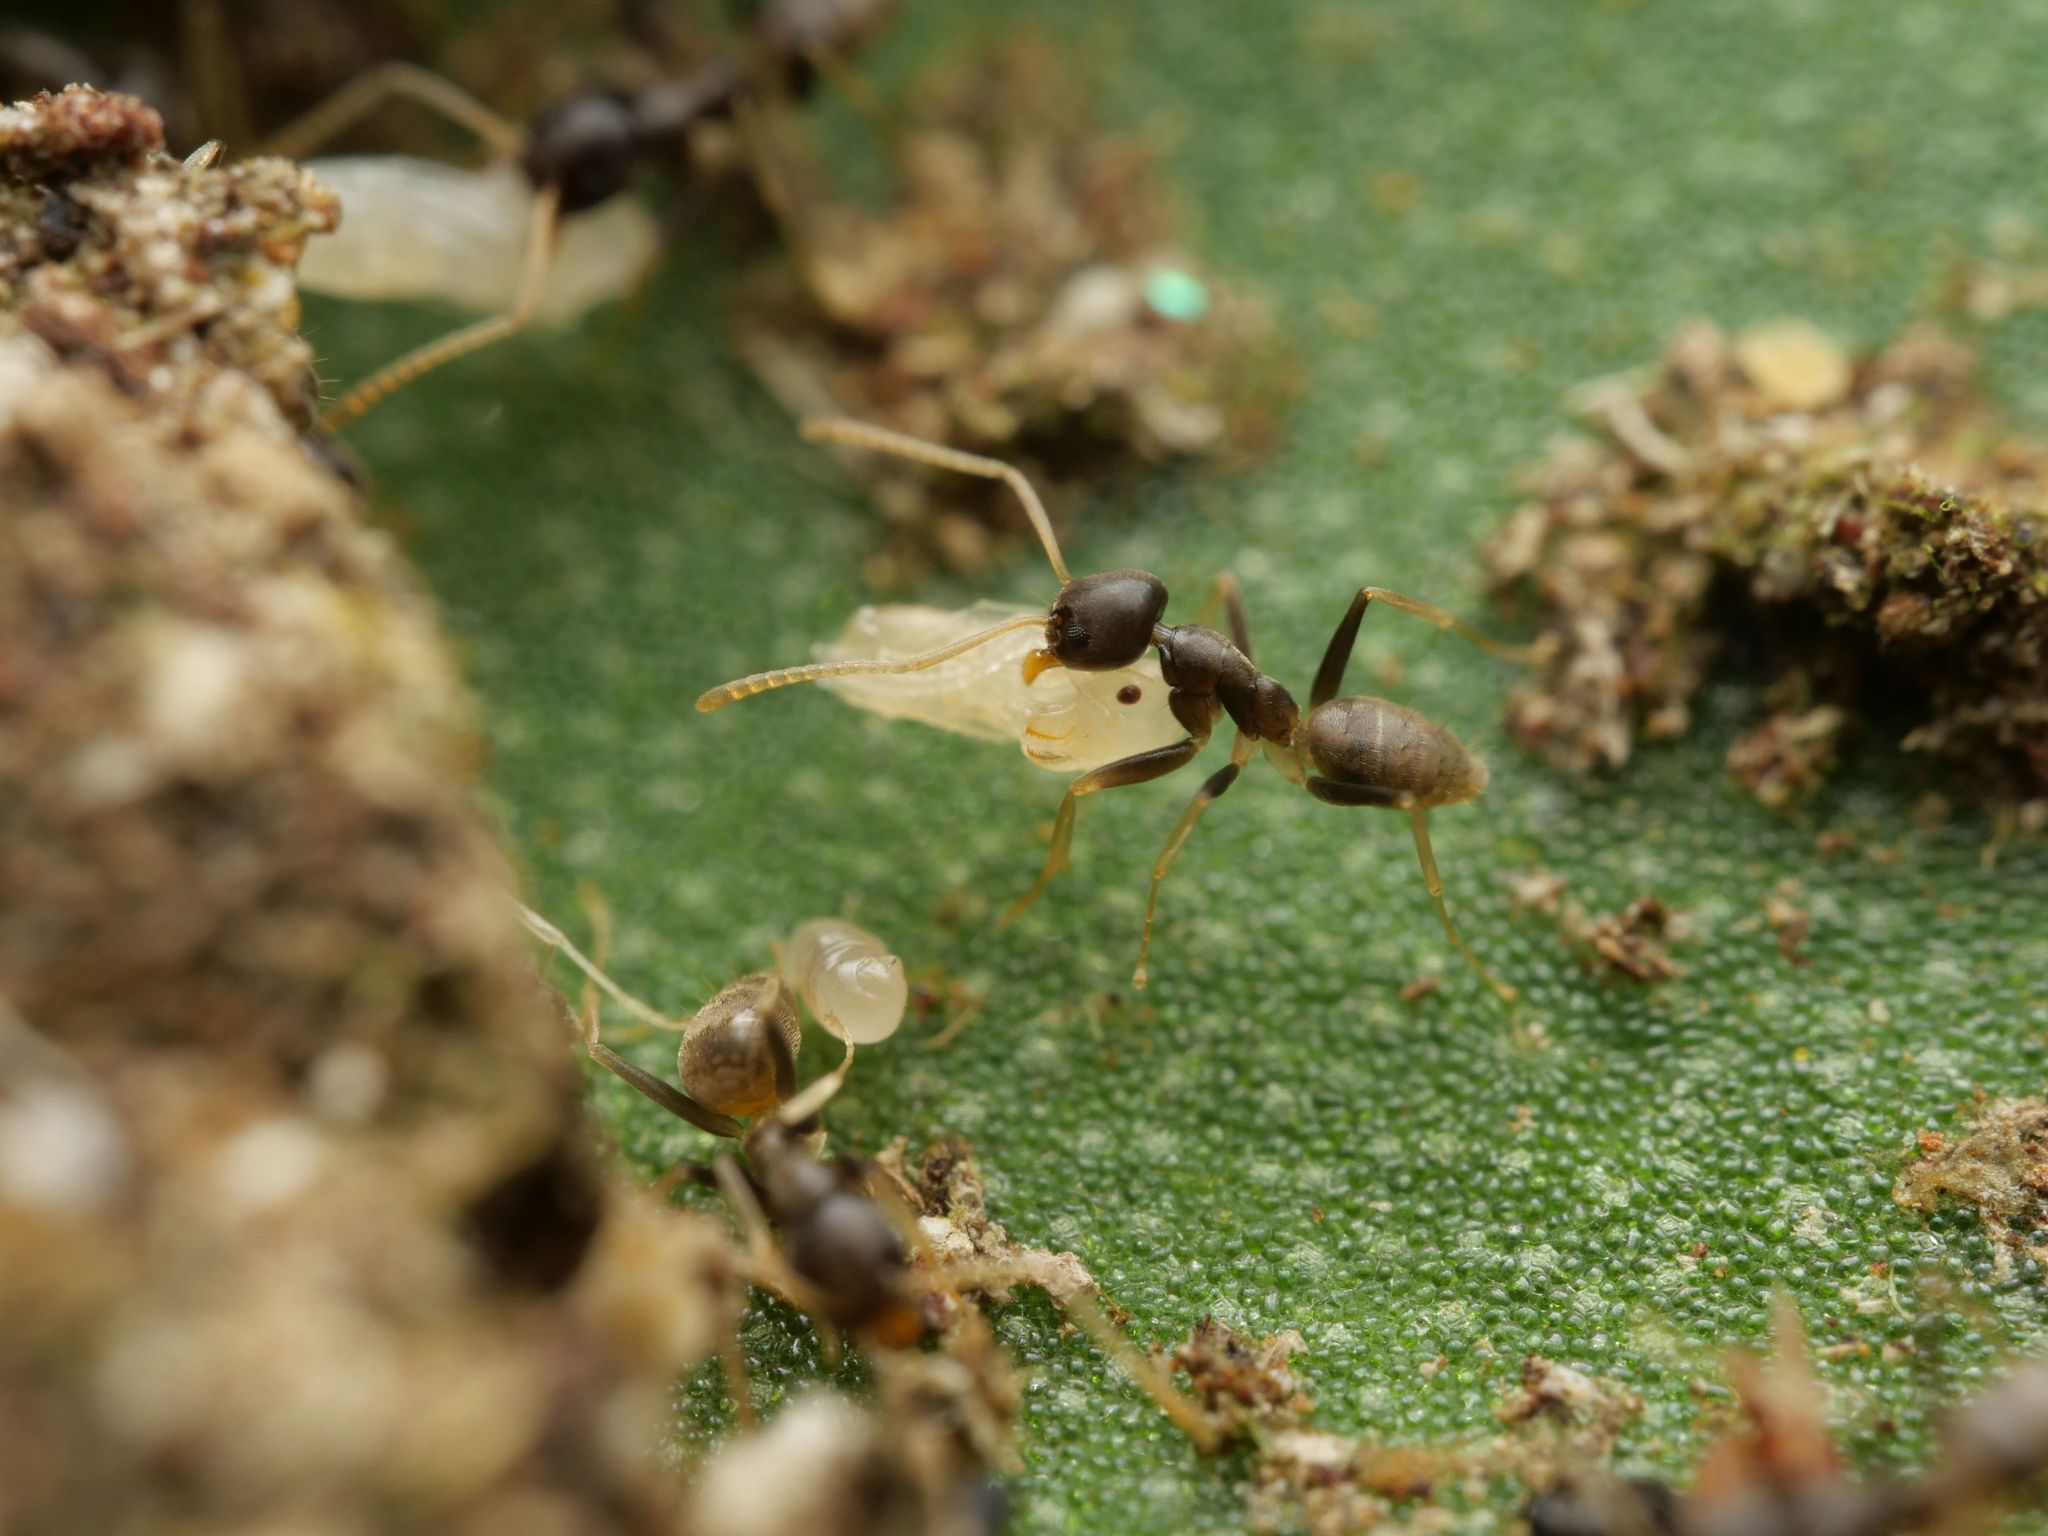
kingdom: Animalia
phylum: Arthropoda
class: Insecta
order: Hymenoptera
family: Formicidae
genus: Tapinoma
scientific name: Tapinoma ramulorum
